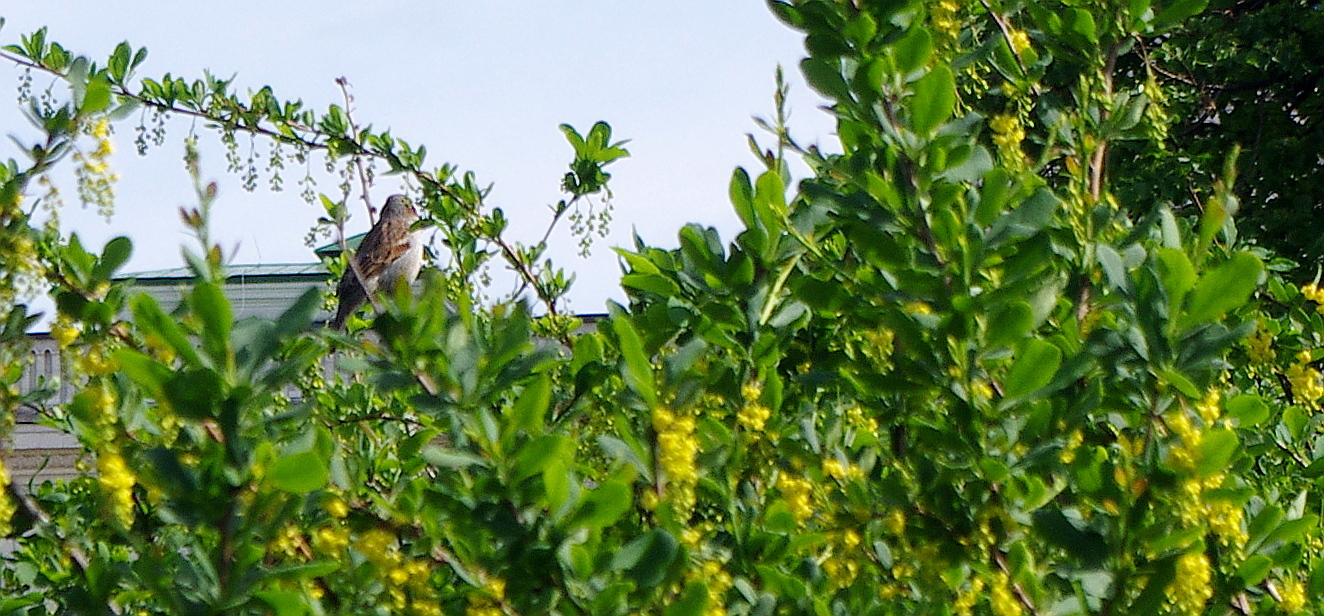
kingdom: Animalia
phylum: Chordata
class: Aves
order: Passeriformes
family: Passeridae
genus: Passer
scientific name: Passer domesticus
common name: House sparrow
